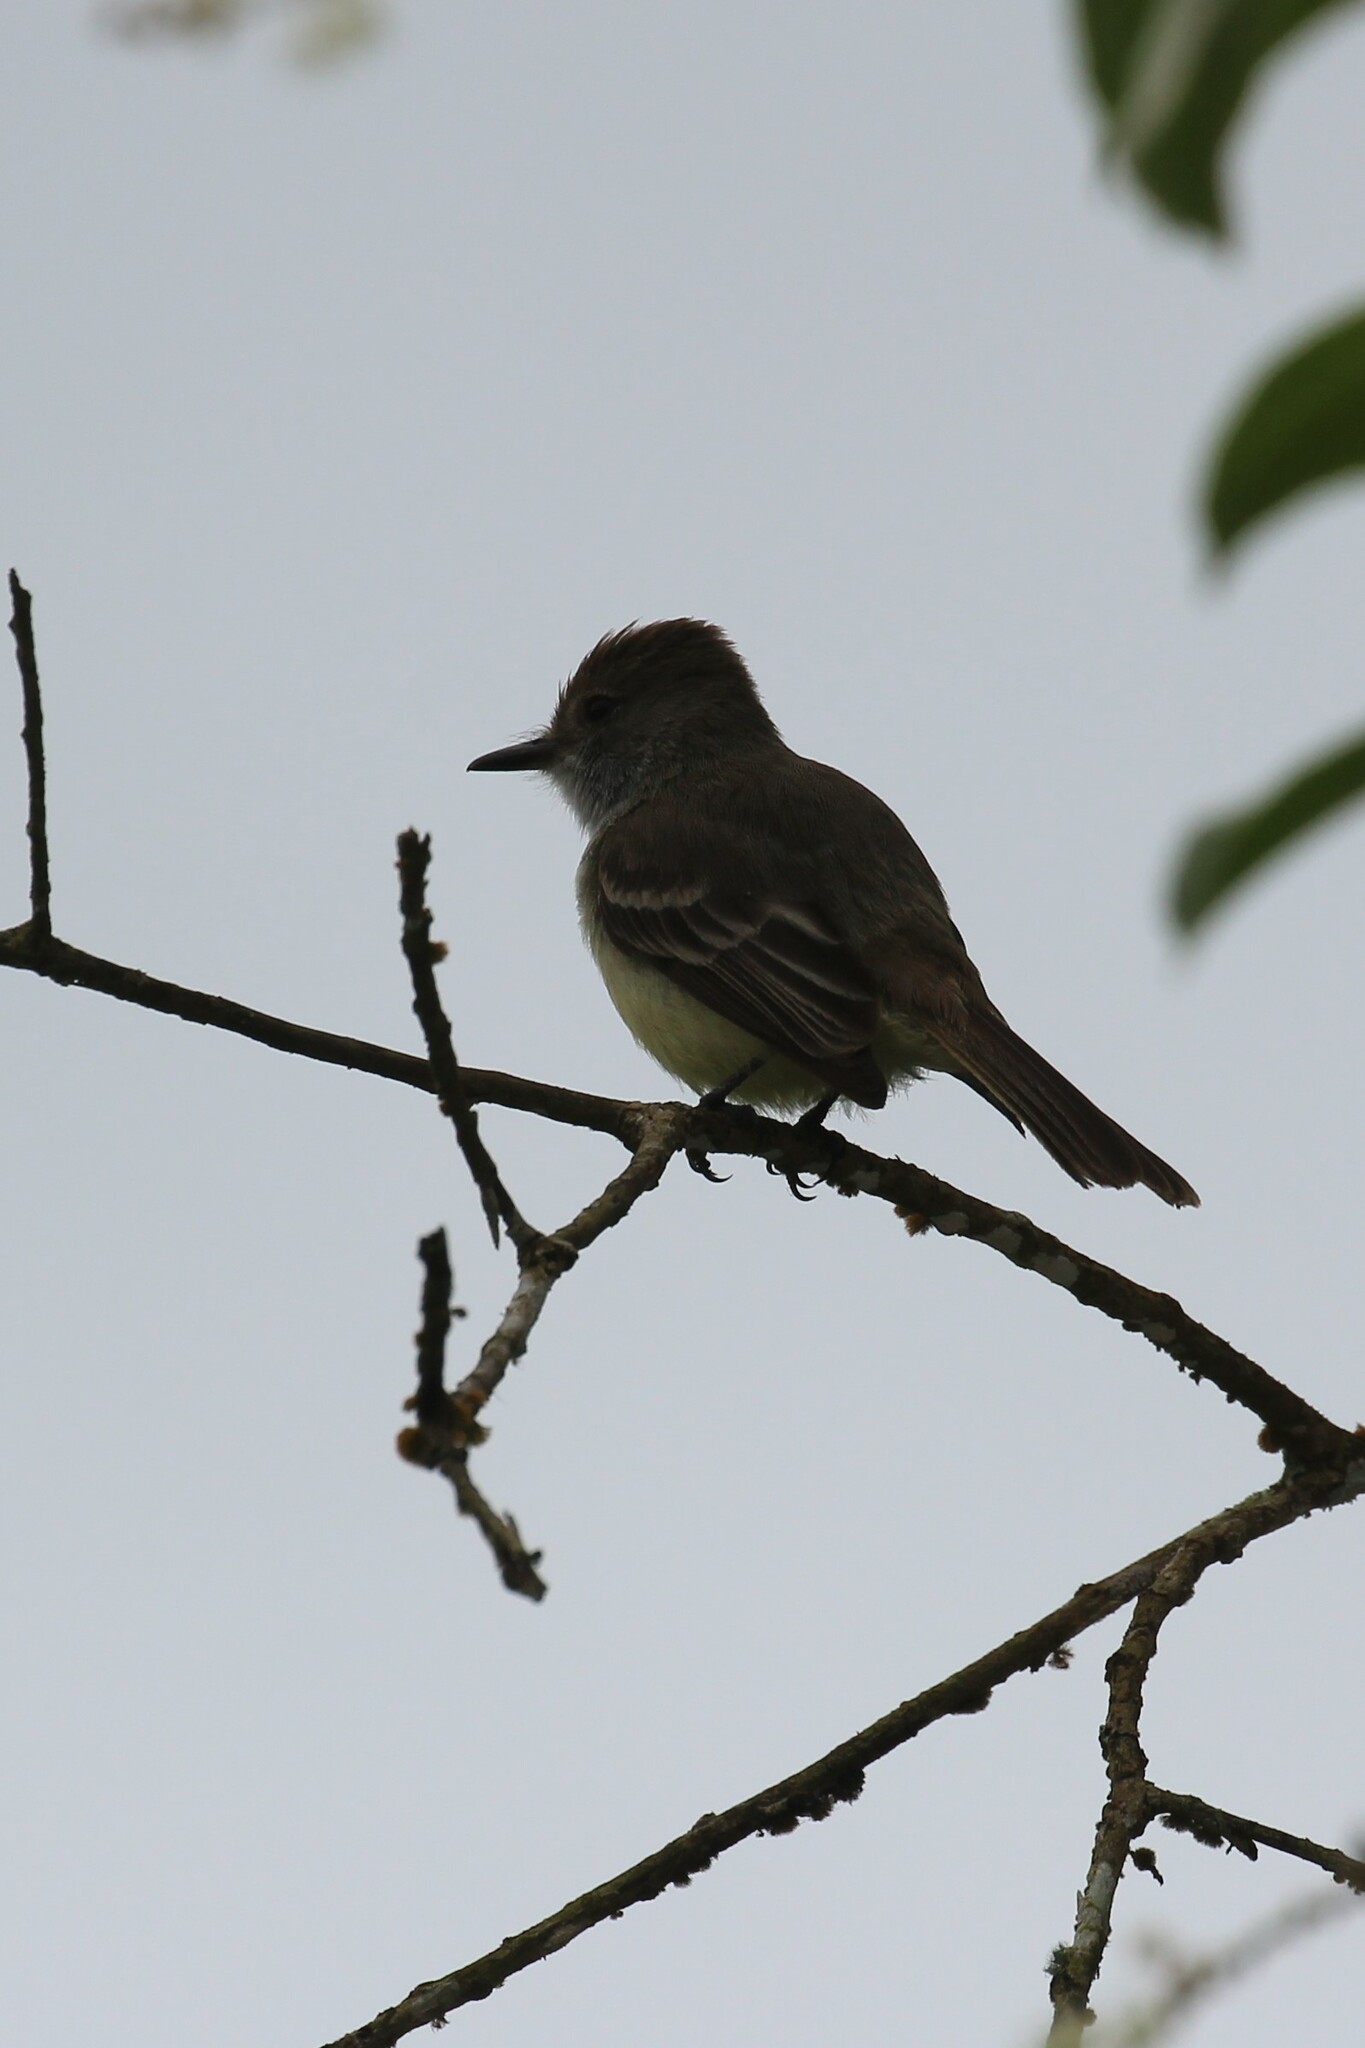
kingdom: Animalia
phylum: Chordata
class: Aves
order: Passeriformes
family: Tyrannidae
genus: Myiarchus
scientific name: Myiarchus magnirostris
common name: Galapagos flycatcher
